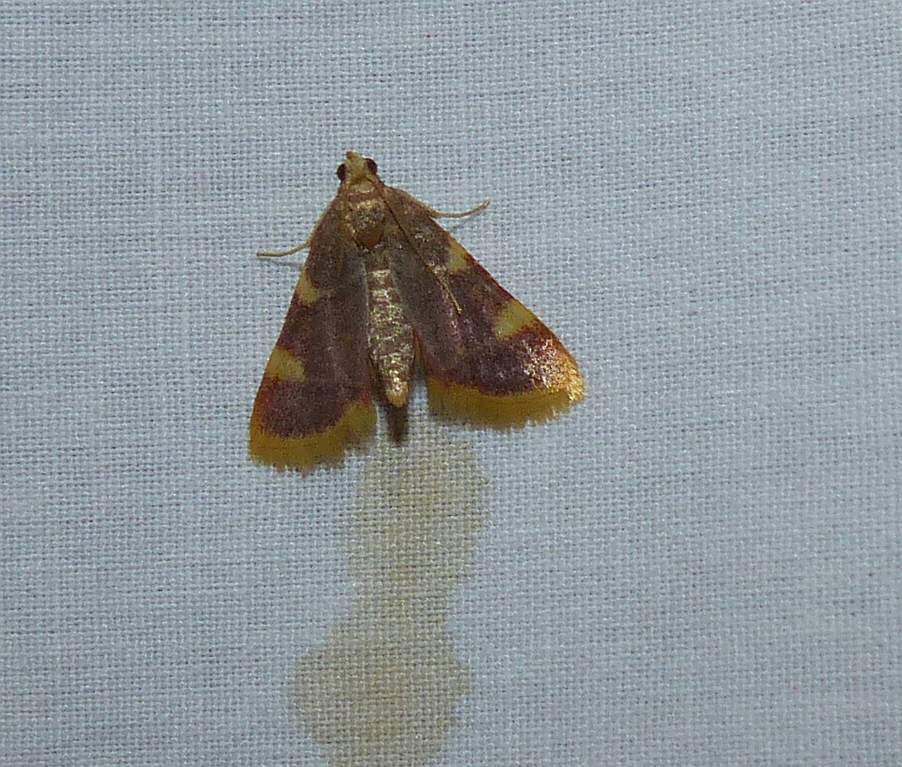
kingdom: Animalia
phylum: Arthropoda
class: Insecta
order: Lepidoptera
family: Pyralidae
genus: Hypsopygia
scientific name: Hypsopygia costalis
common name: Gold triangle
